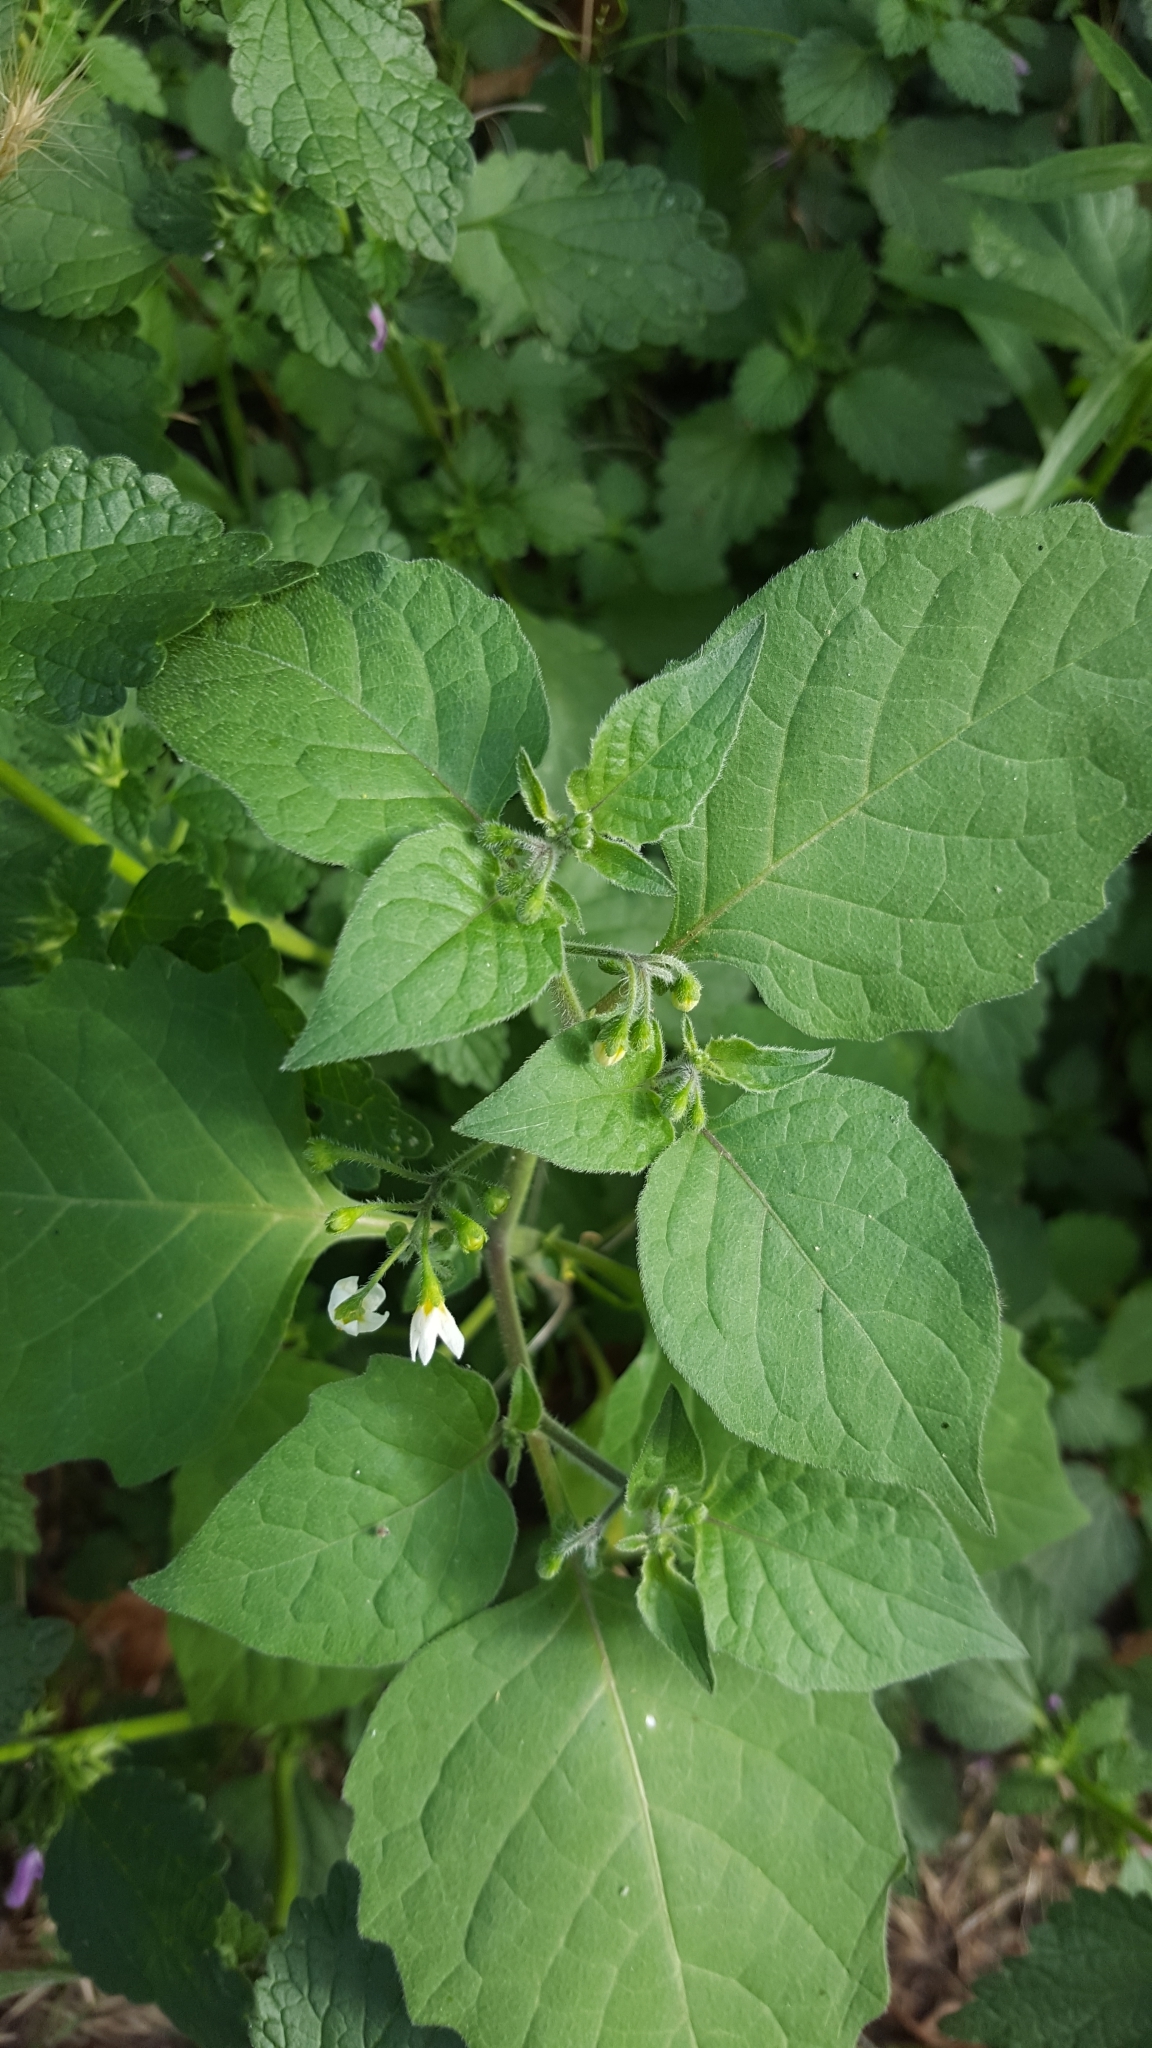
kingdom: Plantae
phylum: Tracheophyta
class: Magnoliopsida
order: Solanales
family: Solanaceae
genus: Solanum
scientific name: Solanum nigrum
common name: Black nightshade
